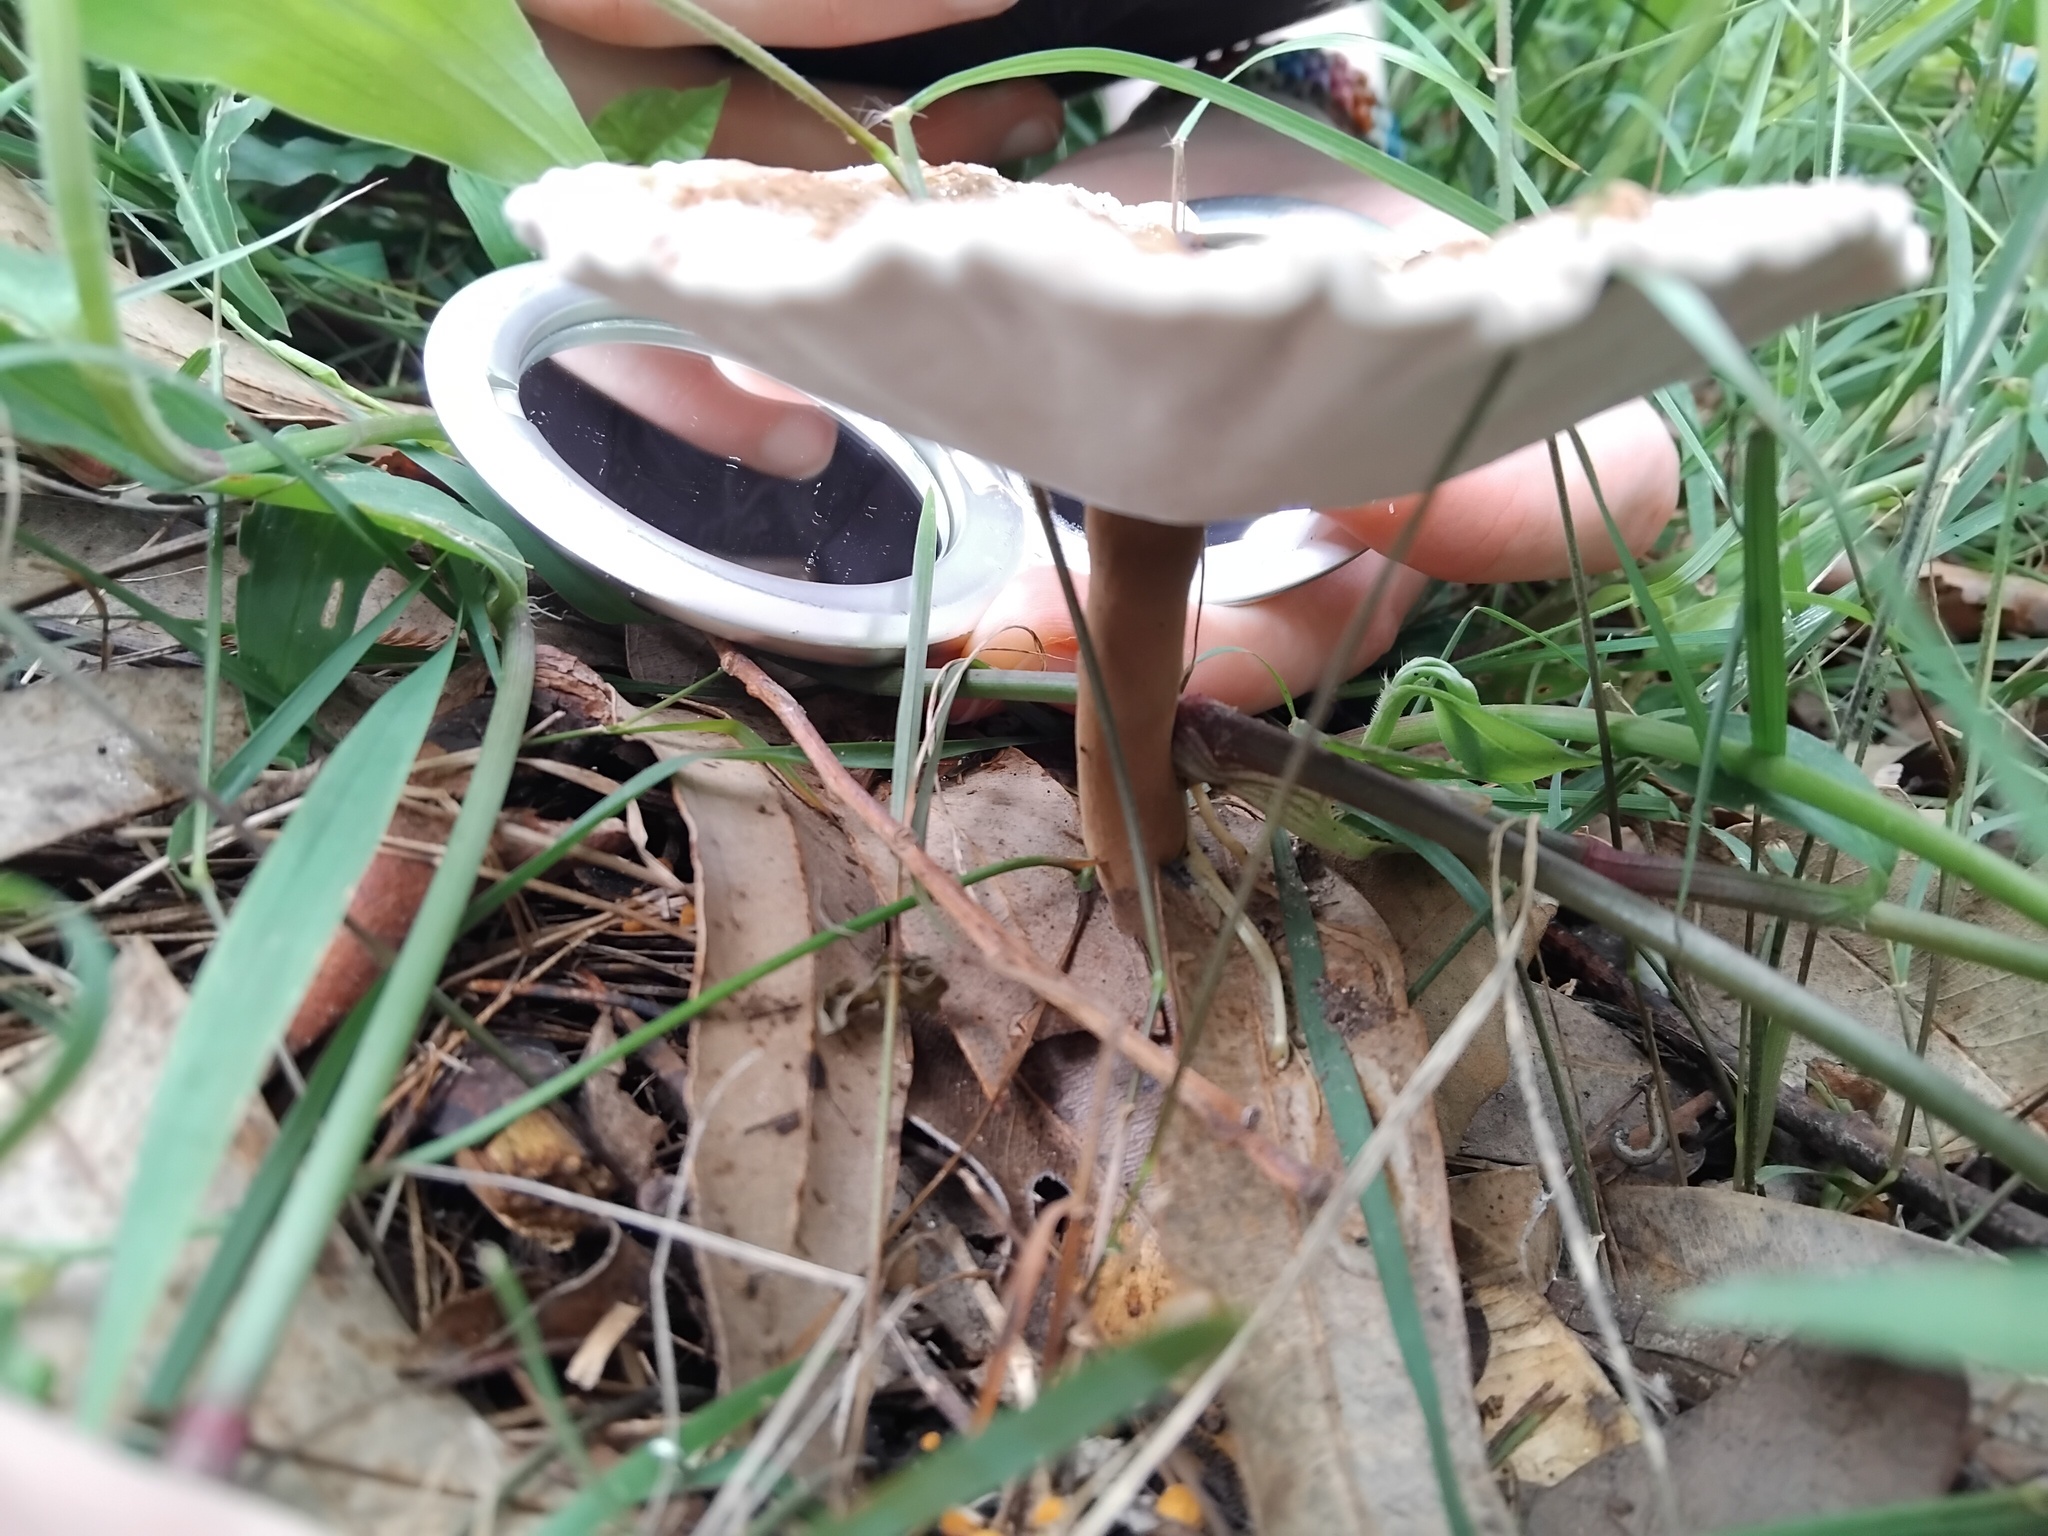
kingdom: Fungi
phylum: Basidiomycota
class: Agaricomycetes
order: Polyporales
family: Ganodermataceae
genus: Sanguinoderma
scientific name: Sanguinoderma rude
